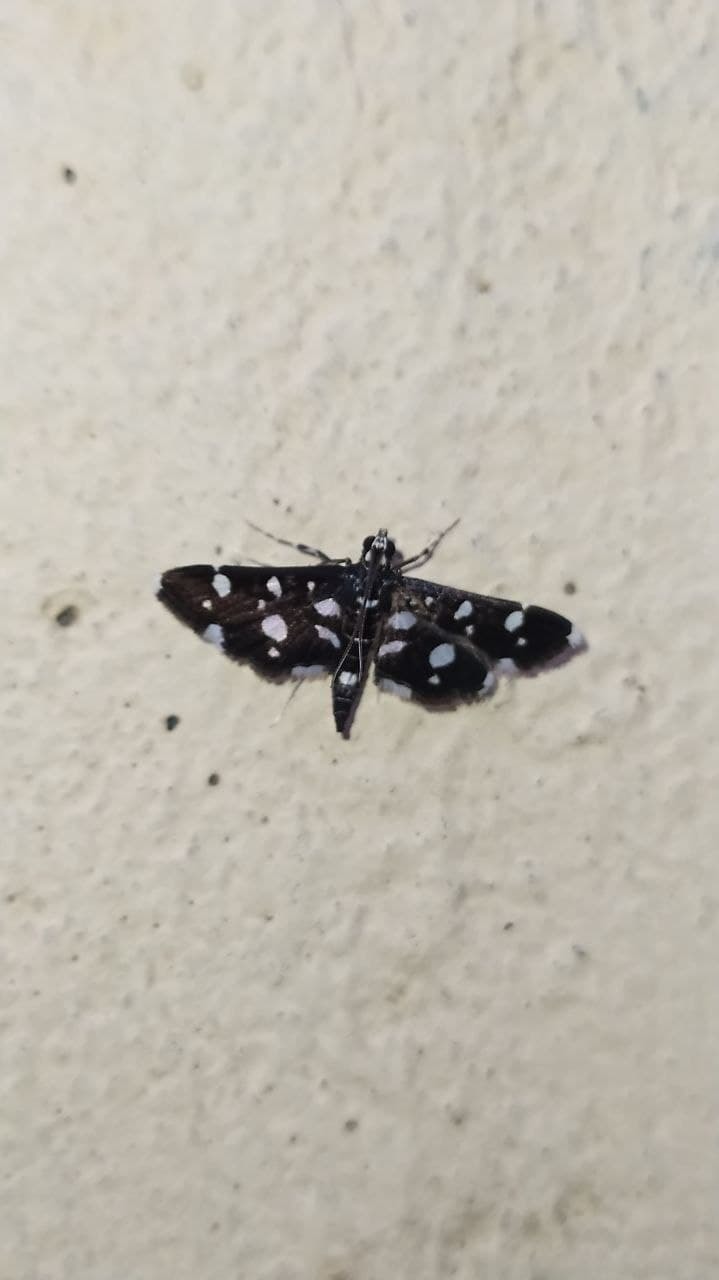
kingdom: Animalia
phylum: Arthropoda
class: Insecta
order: Lepidoptera
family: Crambidae
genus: Bocchoris
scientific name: Bocchoris inspersalis
